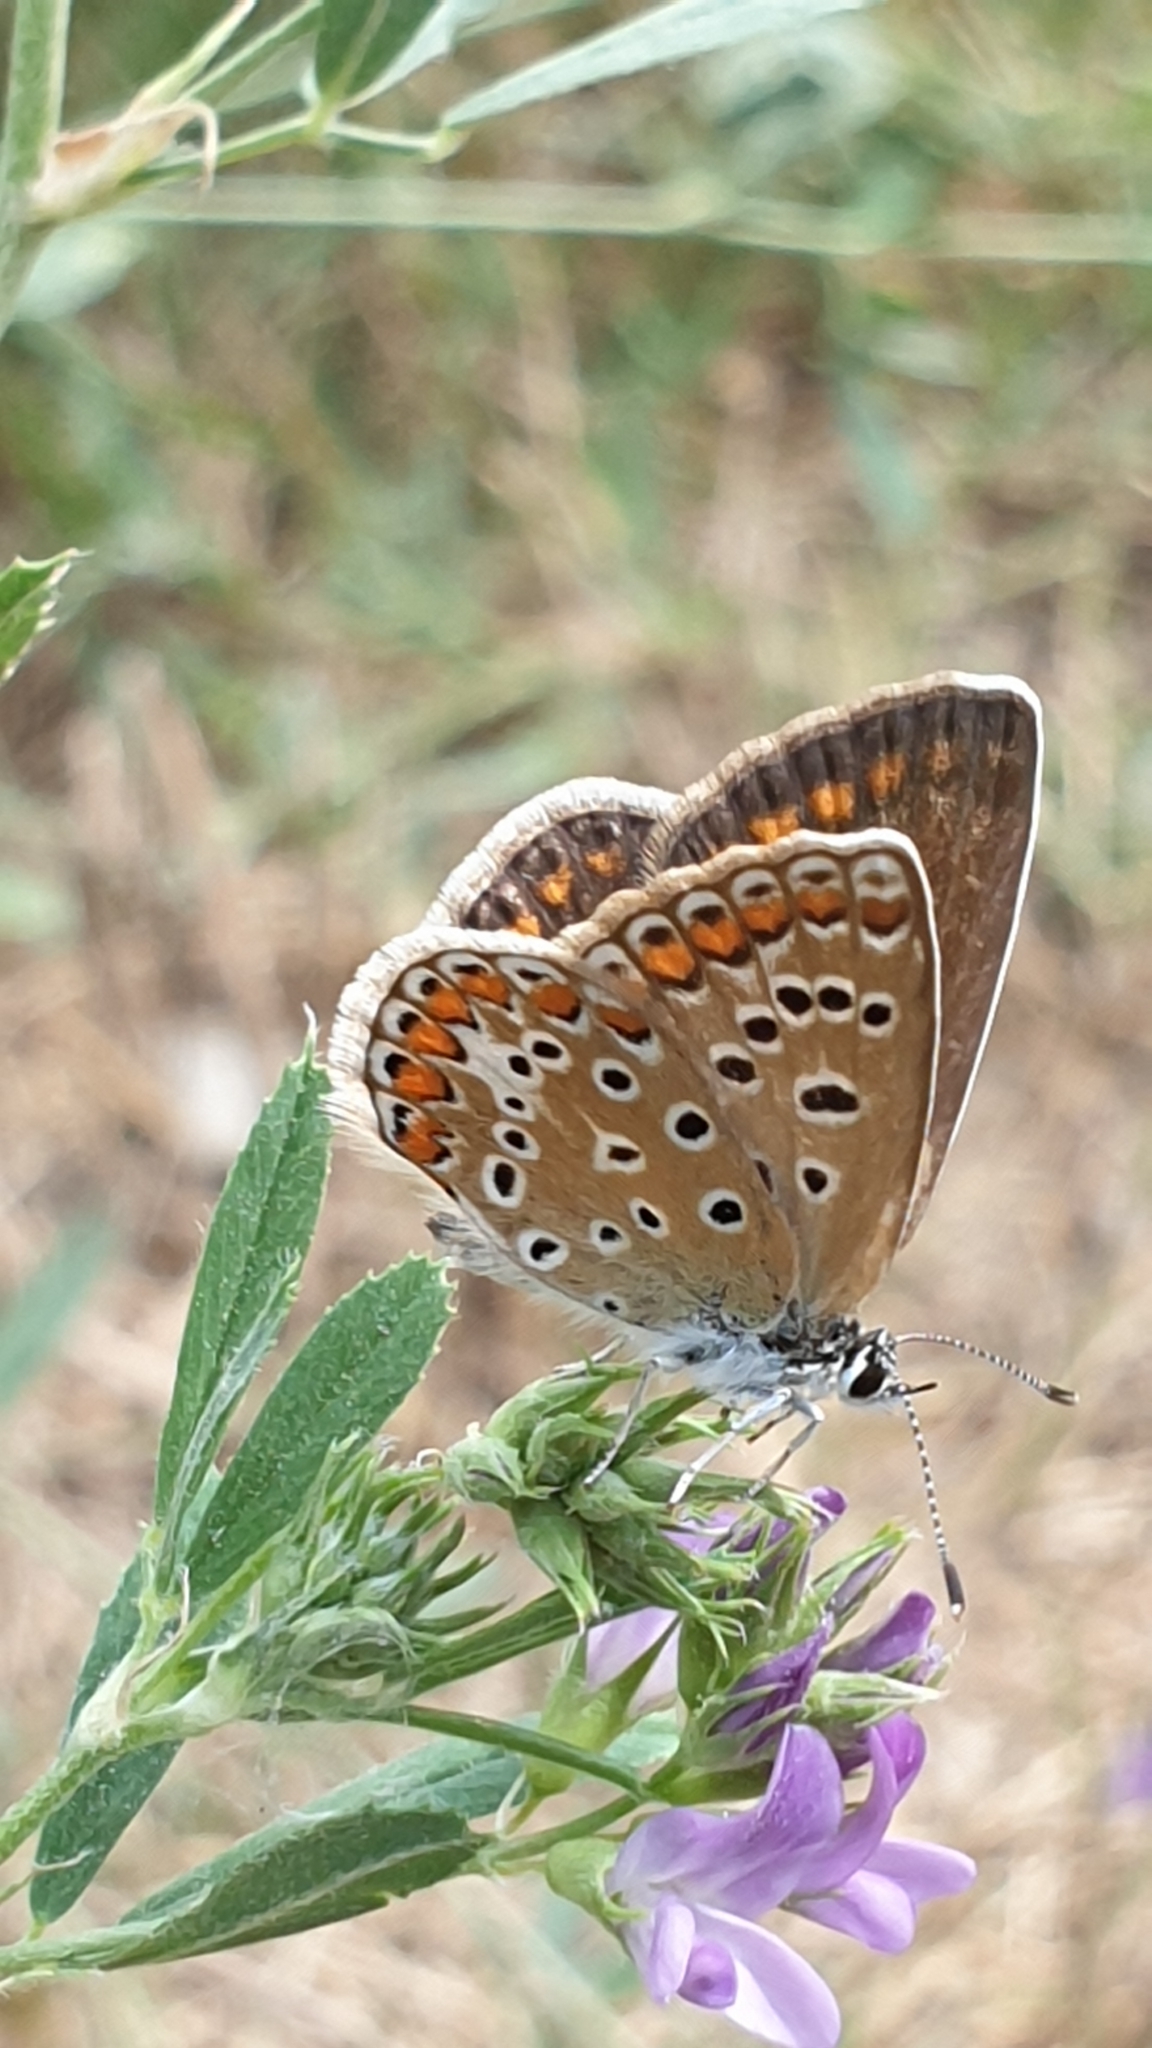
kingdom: Animalia
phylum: Arthropoda
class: Insecta
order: Lepidoptera
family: Lycaenidae
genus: Polyommatus
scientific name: Polyommatus icarus
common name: Common blue
